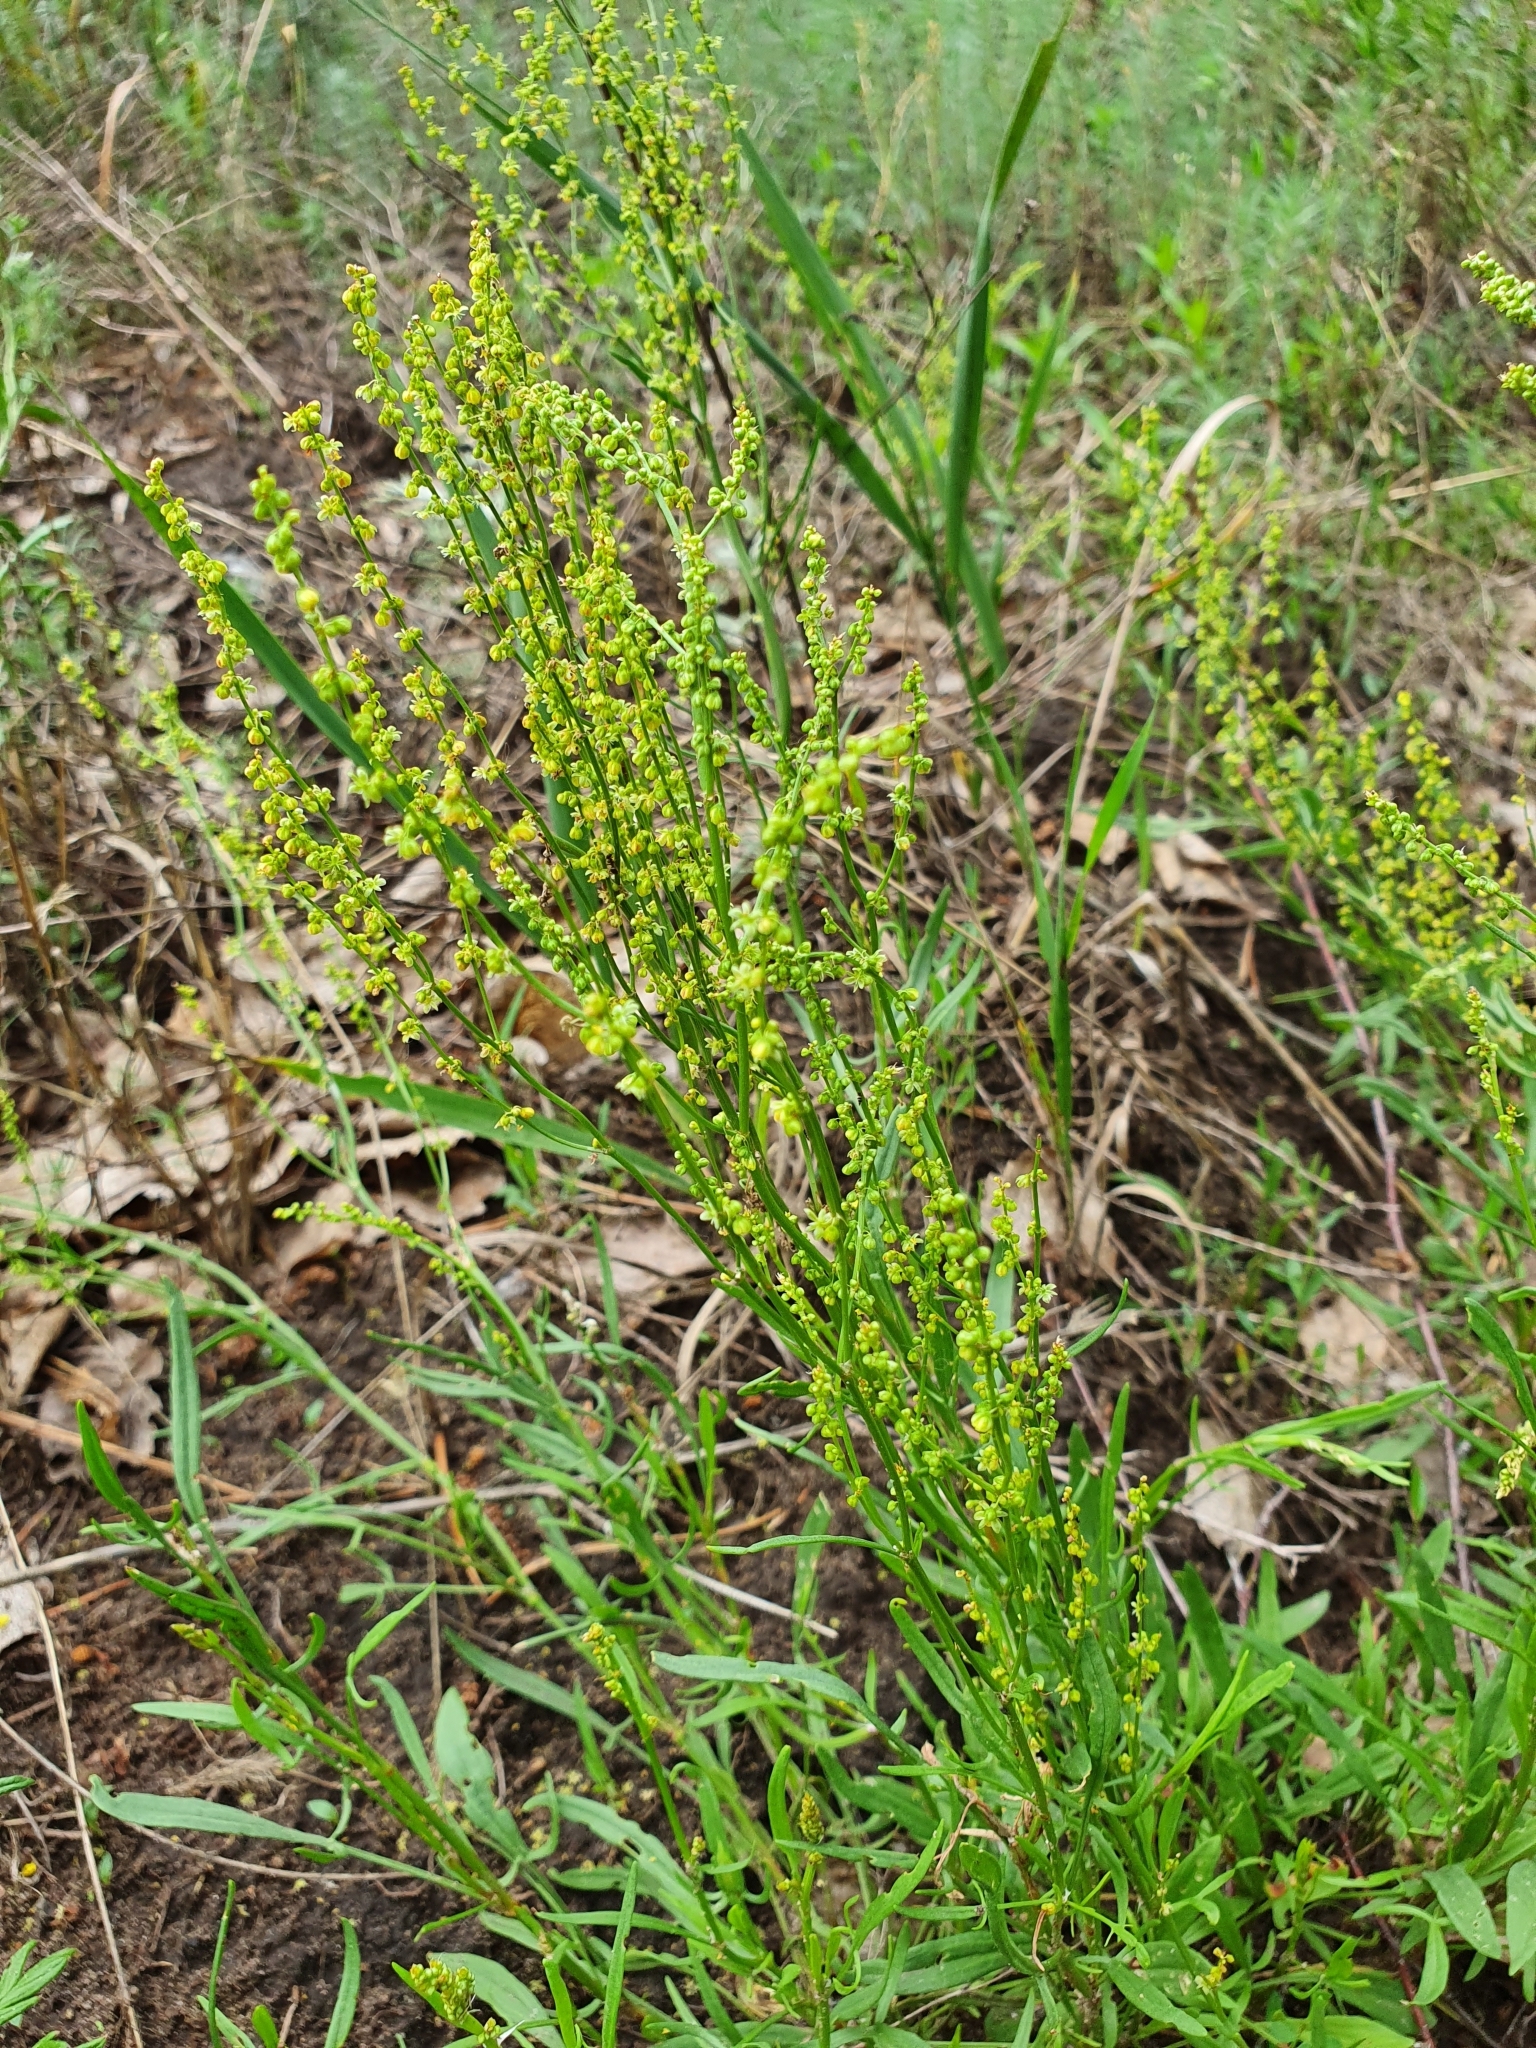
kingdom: Plantae
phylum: Tracheophyta
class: Magnoliopsida
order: Caryophyllales
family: Polygonaceae
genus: Rumex
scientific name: Rumex acetosella
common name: Common sheep sorrel
